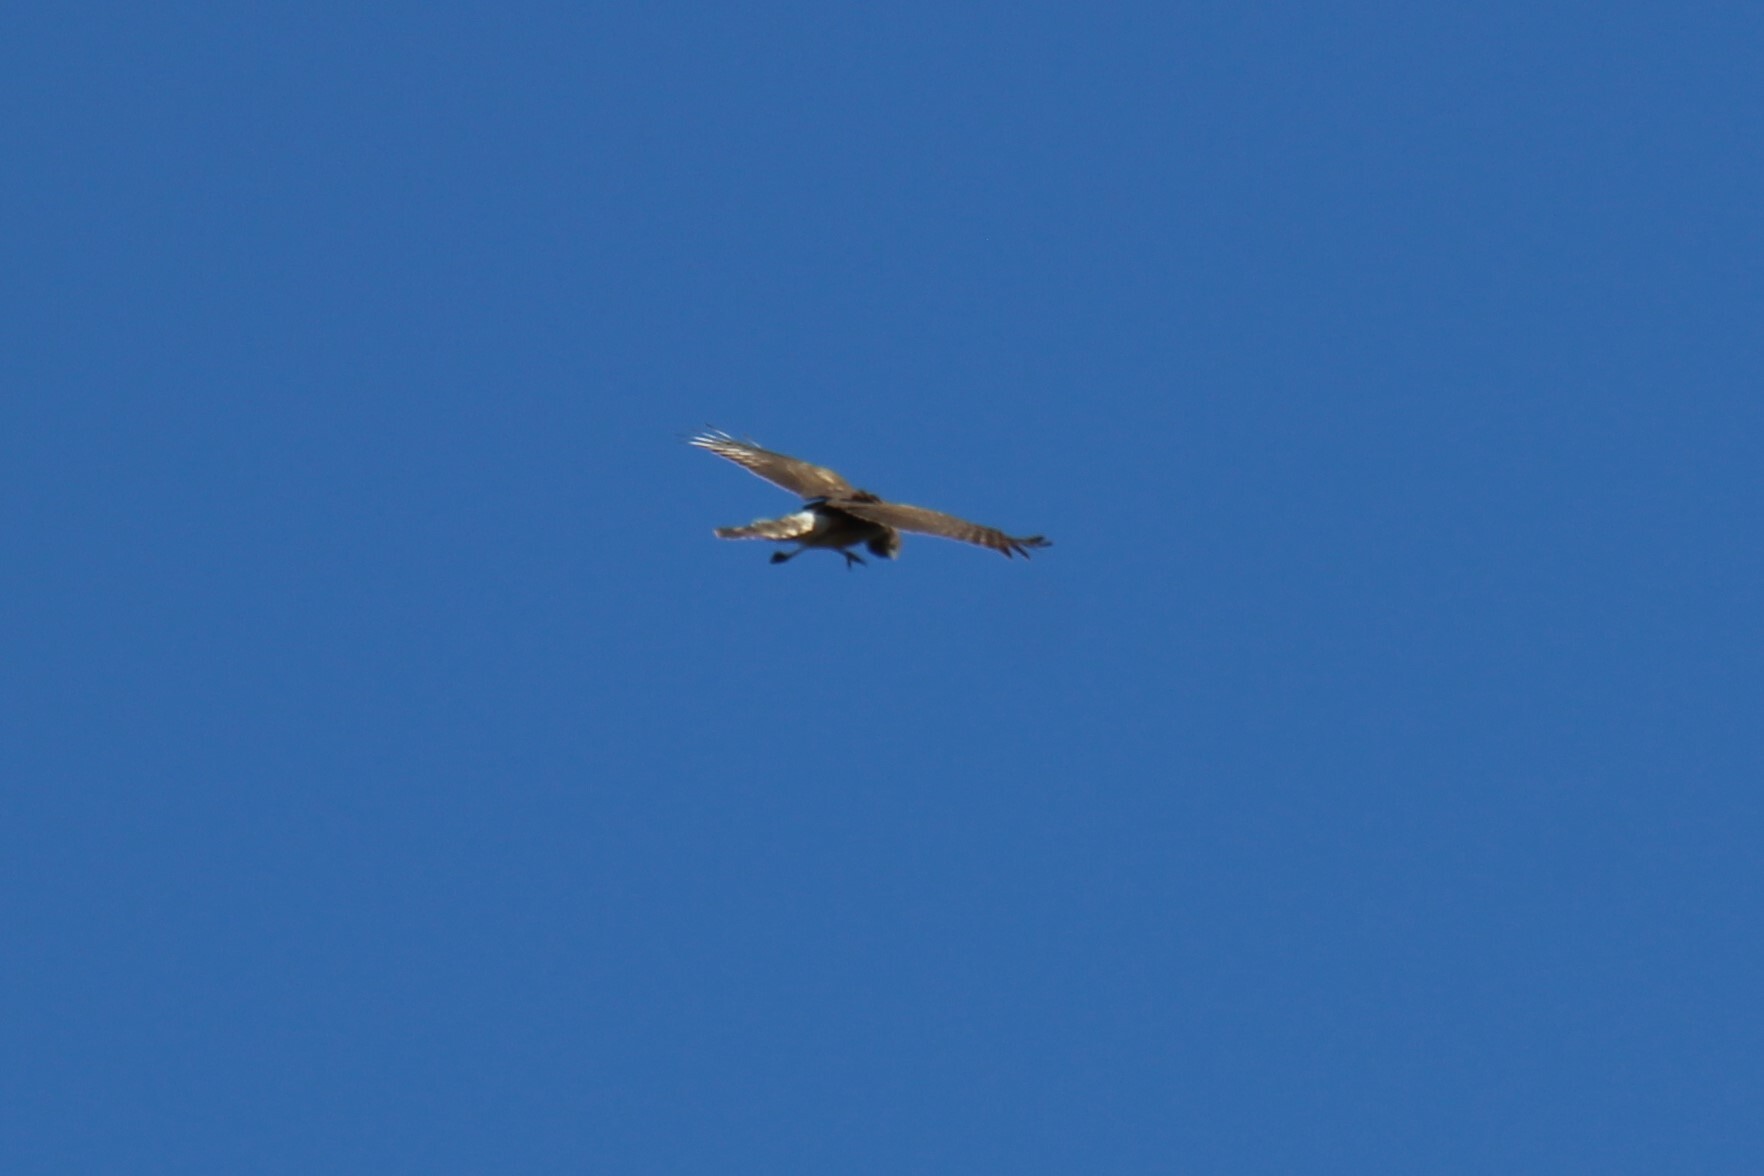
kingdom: Animalia
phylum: Chordata
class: Aves
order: Accipitriformes
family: Accipitridae
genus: Circus
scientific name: Circus cyaneus
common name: Hen harrier
